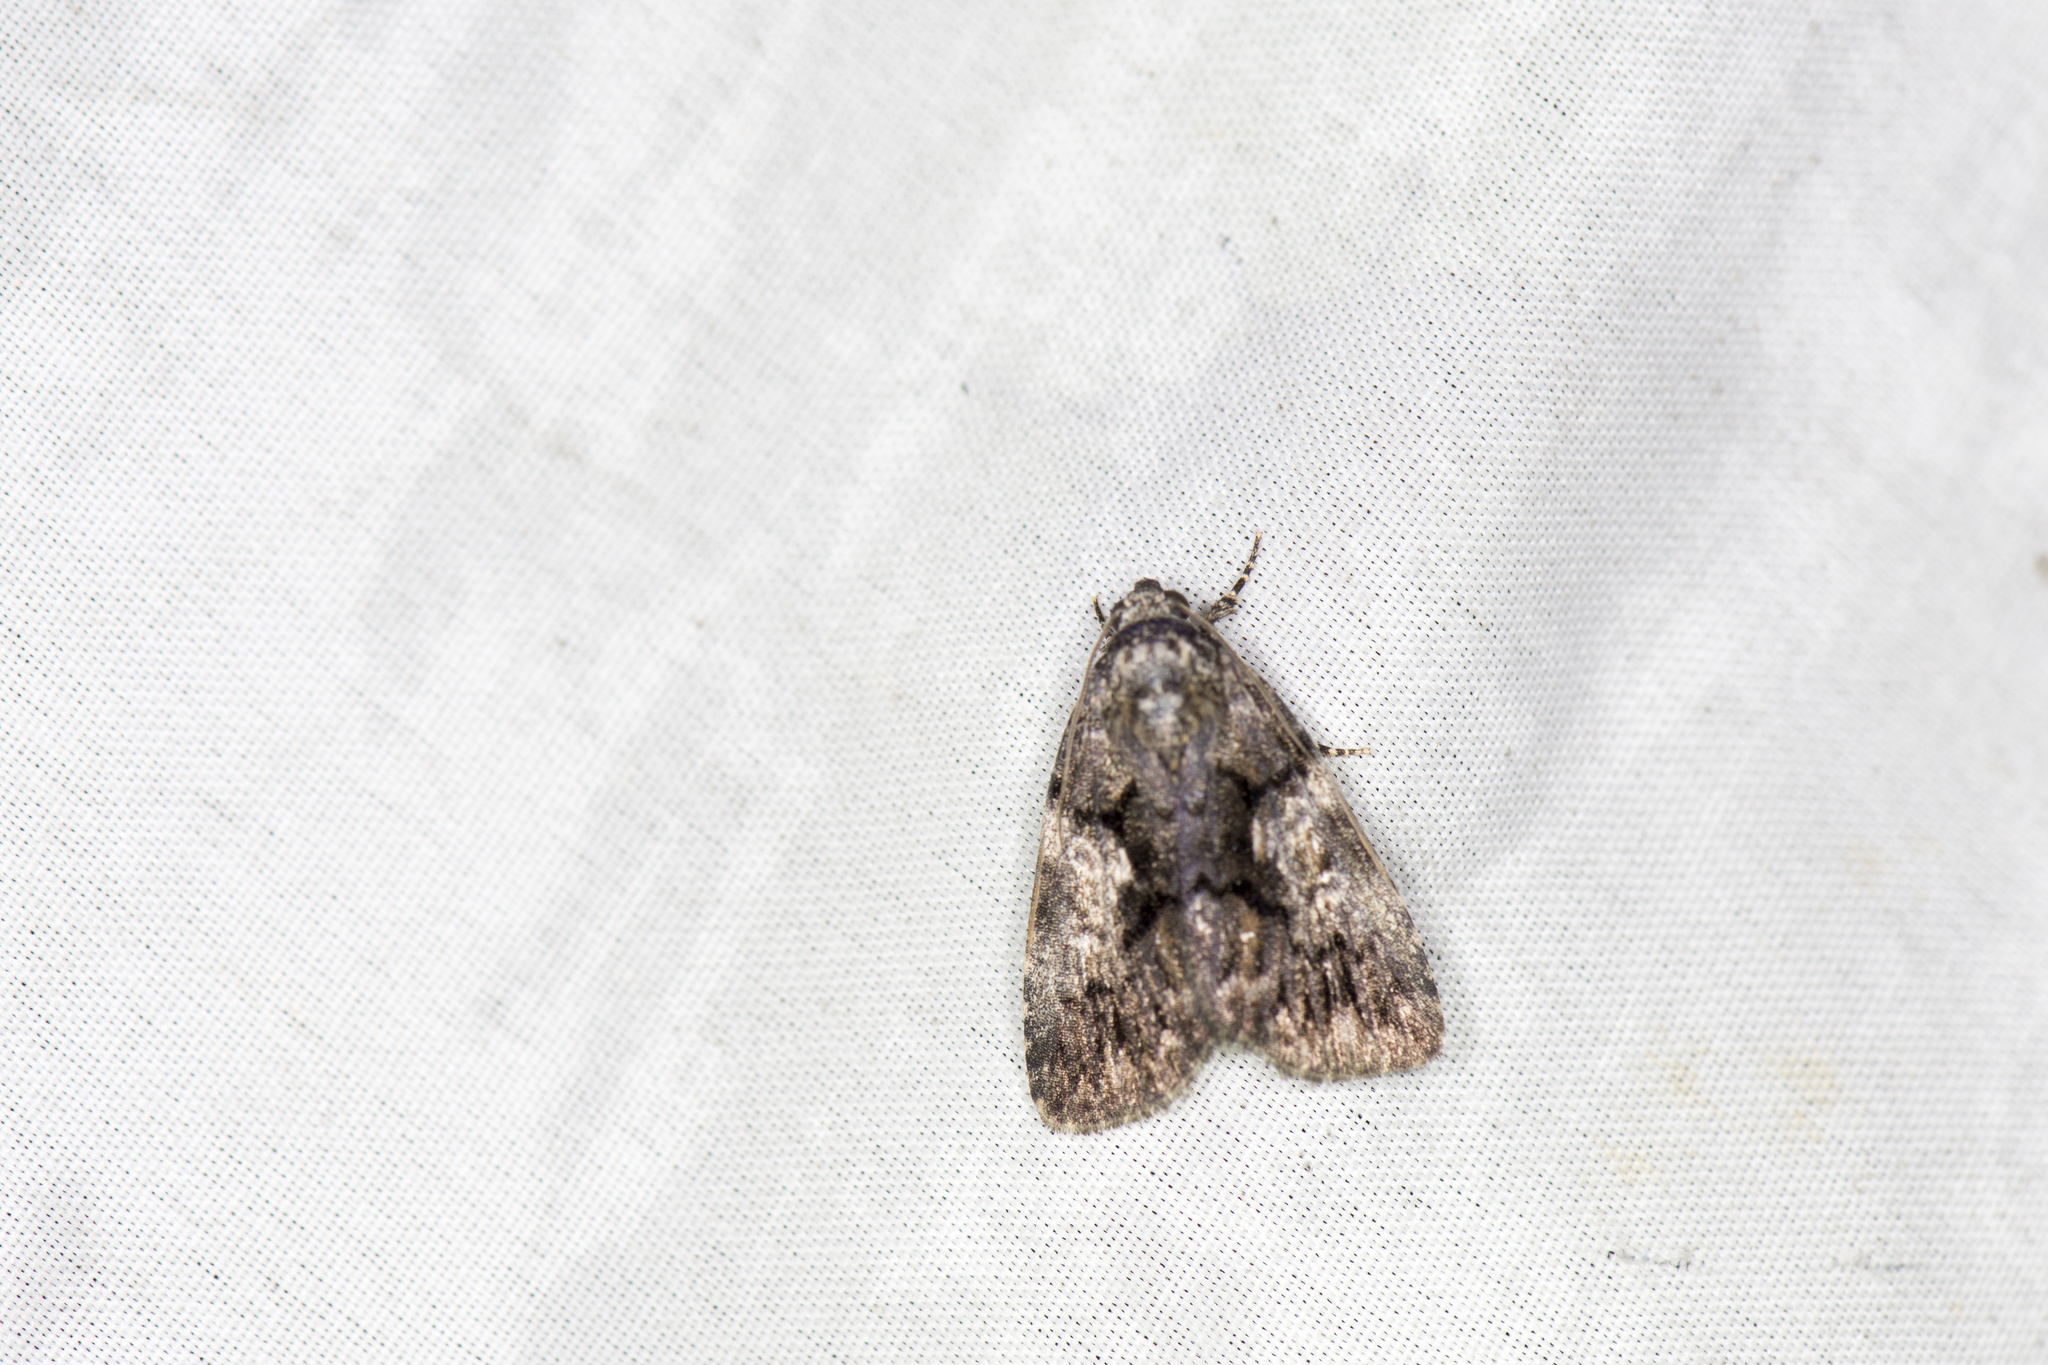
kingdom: Animalia
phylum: Arthropoda
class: Insecta
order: Lepidoptera
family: Noctuidae
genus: Gerbathodes
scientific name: Gerbathodes lichenodes
